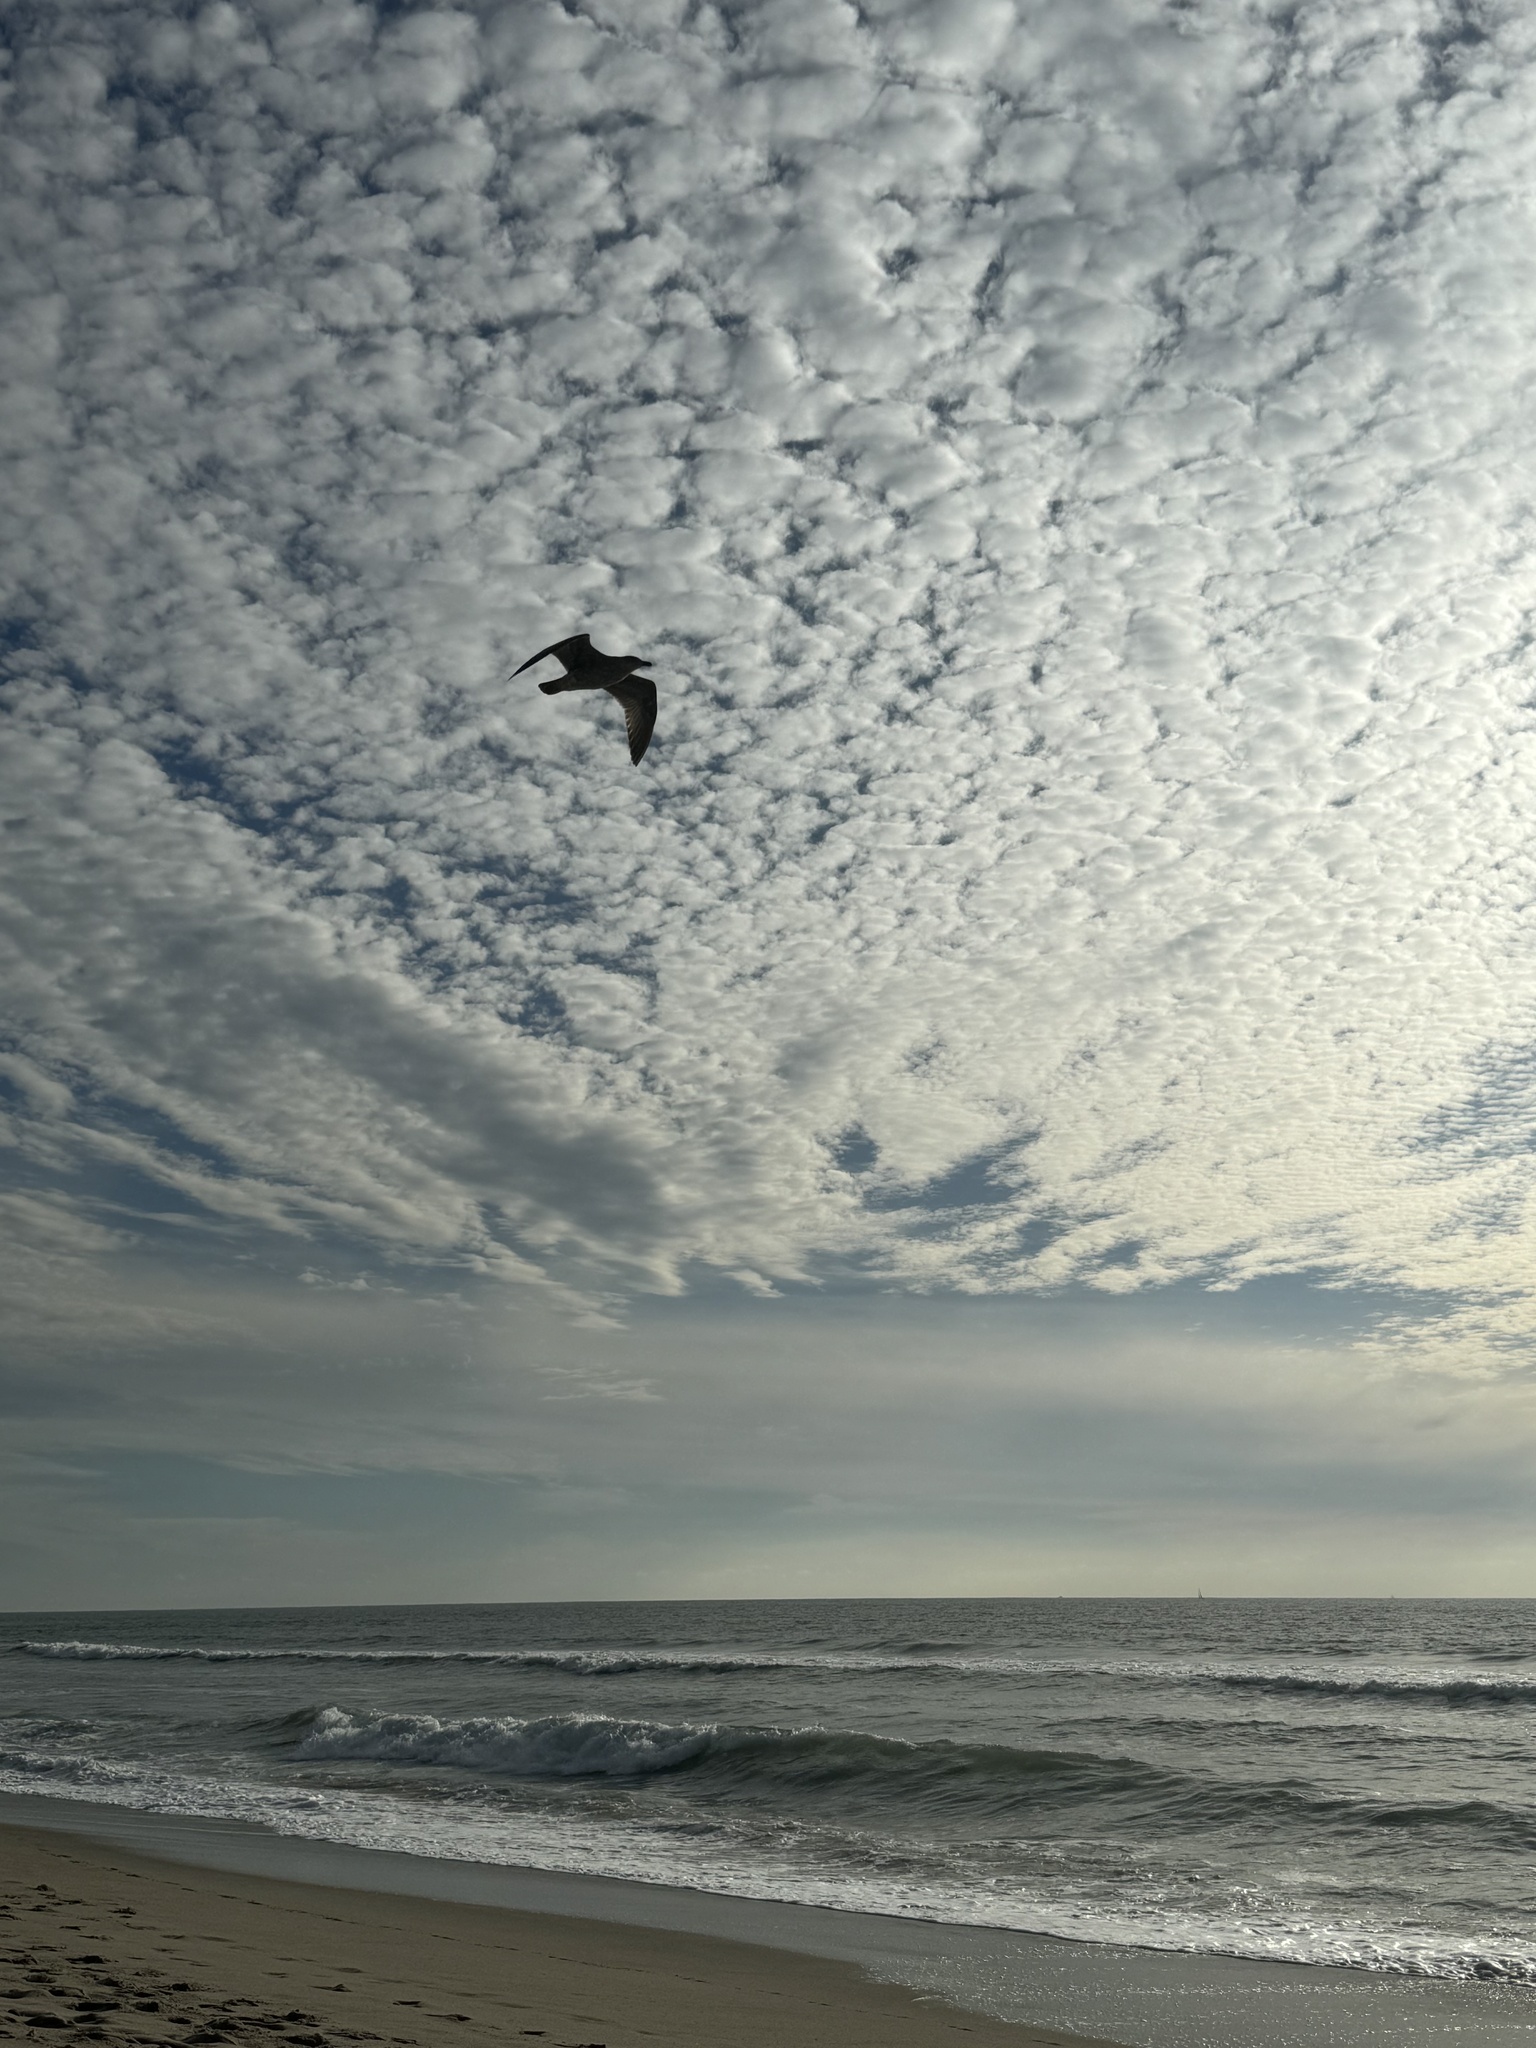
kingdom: Animalia
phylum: Chordata
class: Aves
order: Charadriiformes
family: Laridae
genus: Larus
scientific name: Larus
